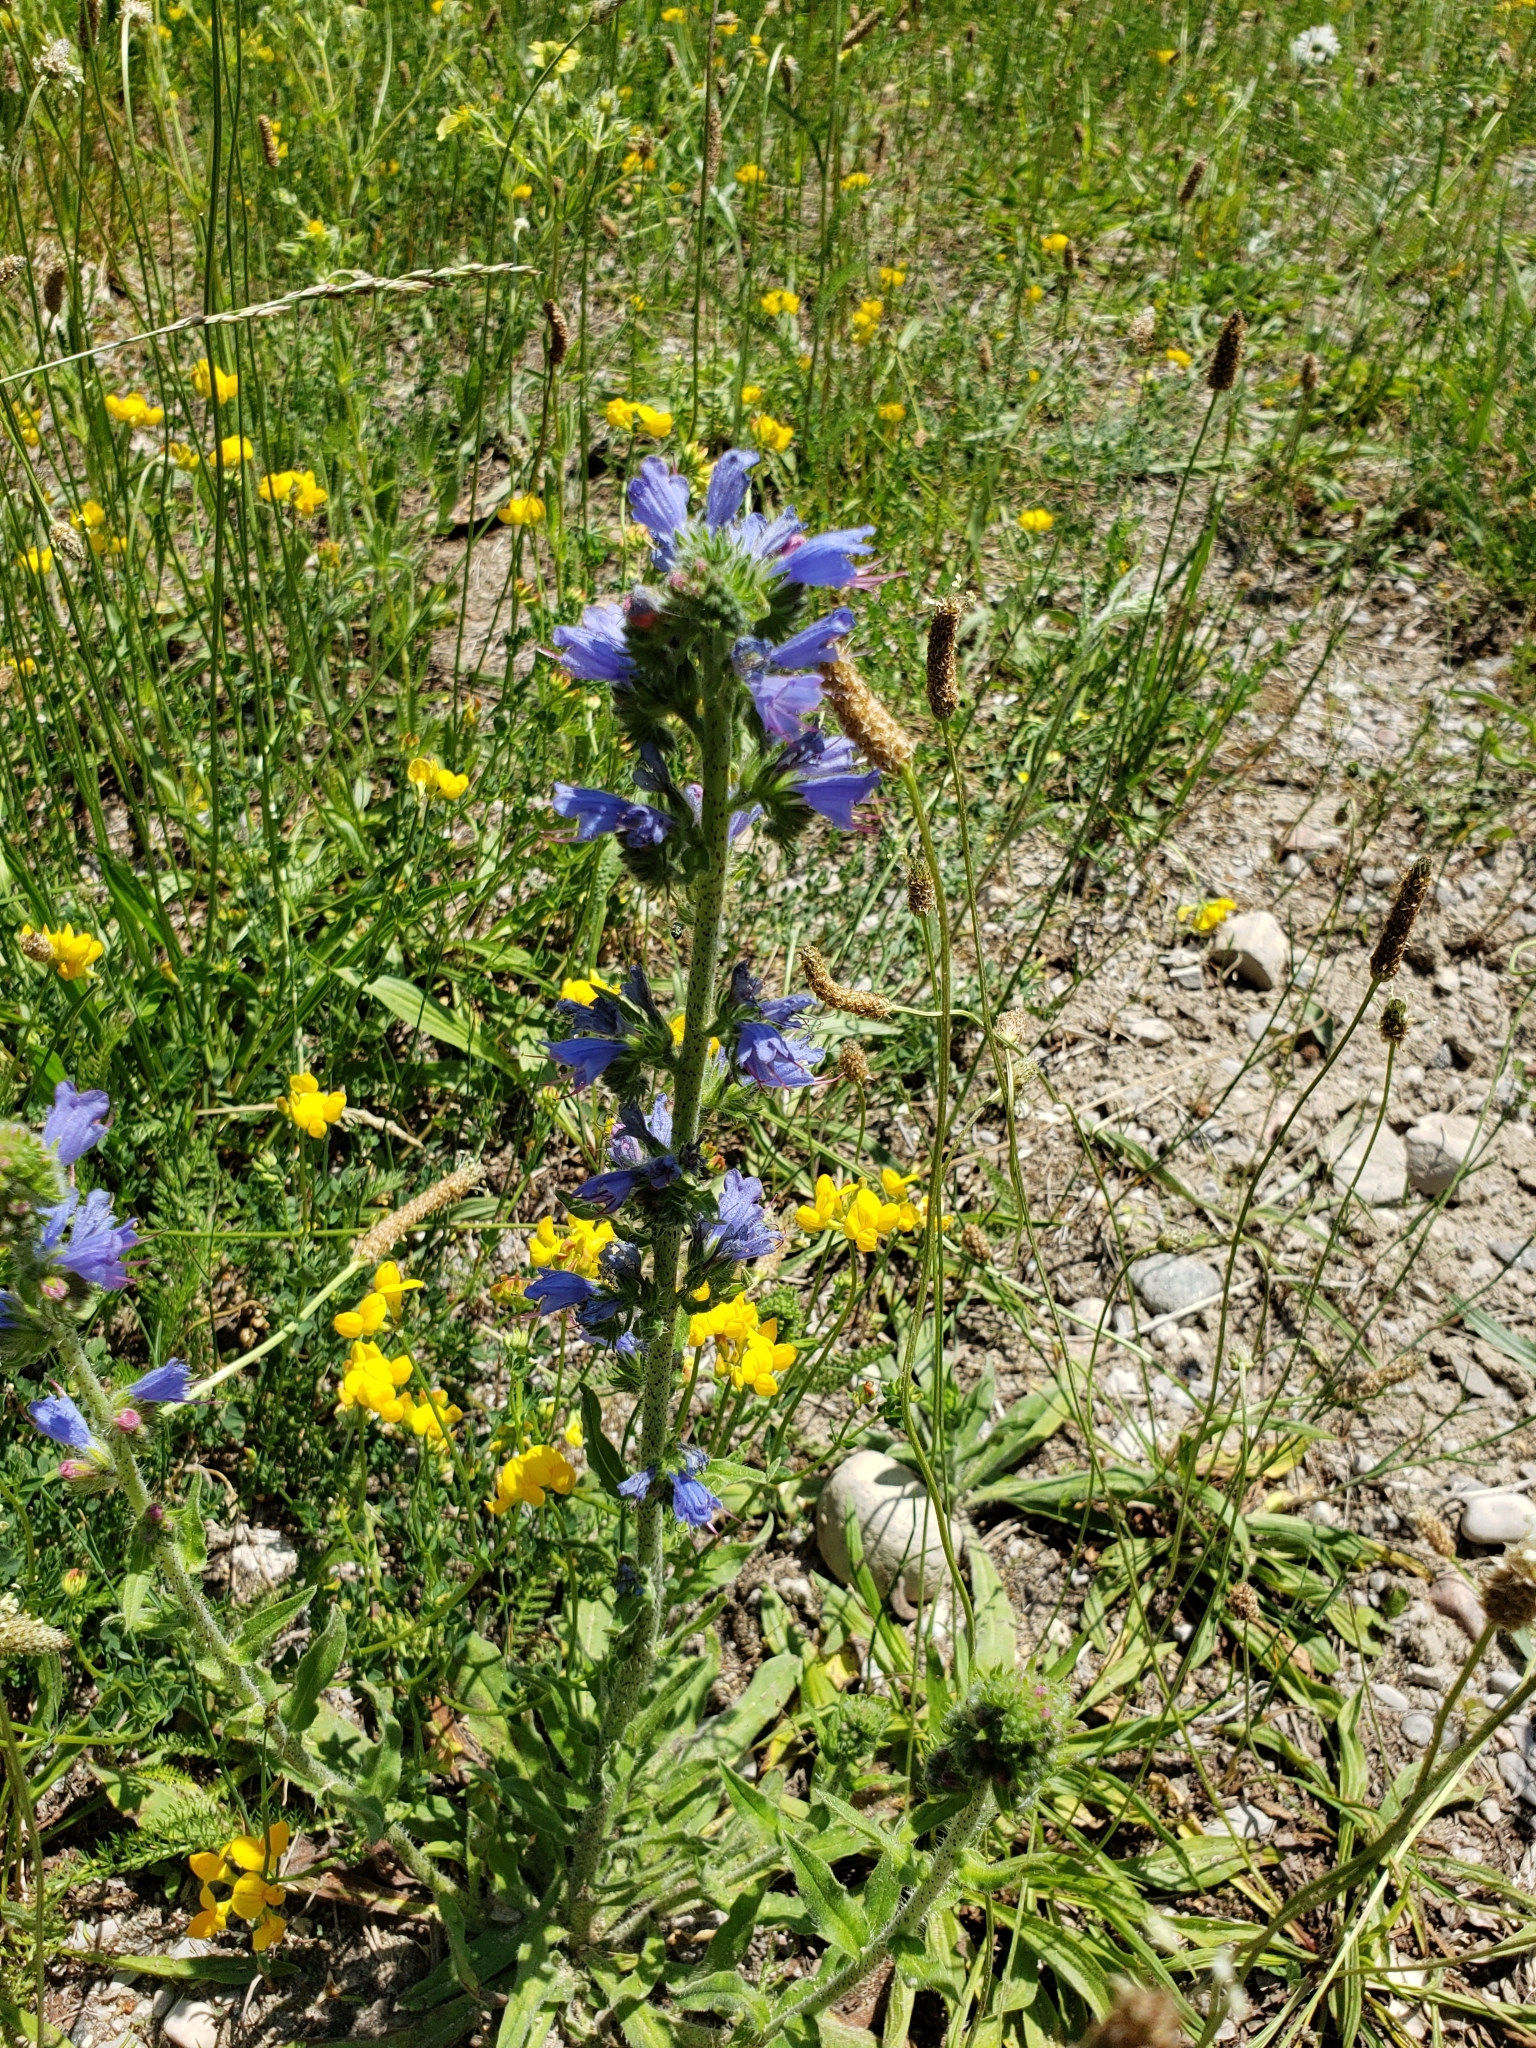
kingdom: Plantae
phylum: Tracheophyta
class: Magnoliopsida
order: Boraginales
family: Boraginaceae
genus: Echium
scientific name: Echium vulgare
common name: Common viper's bugloss
